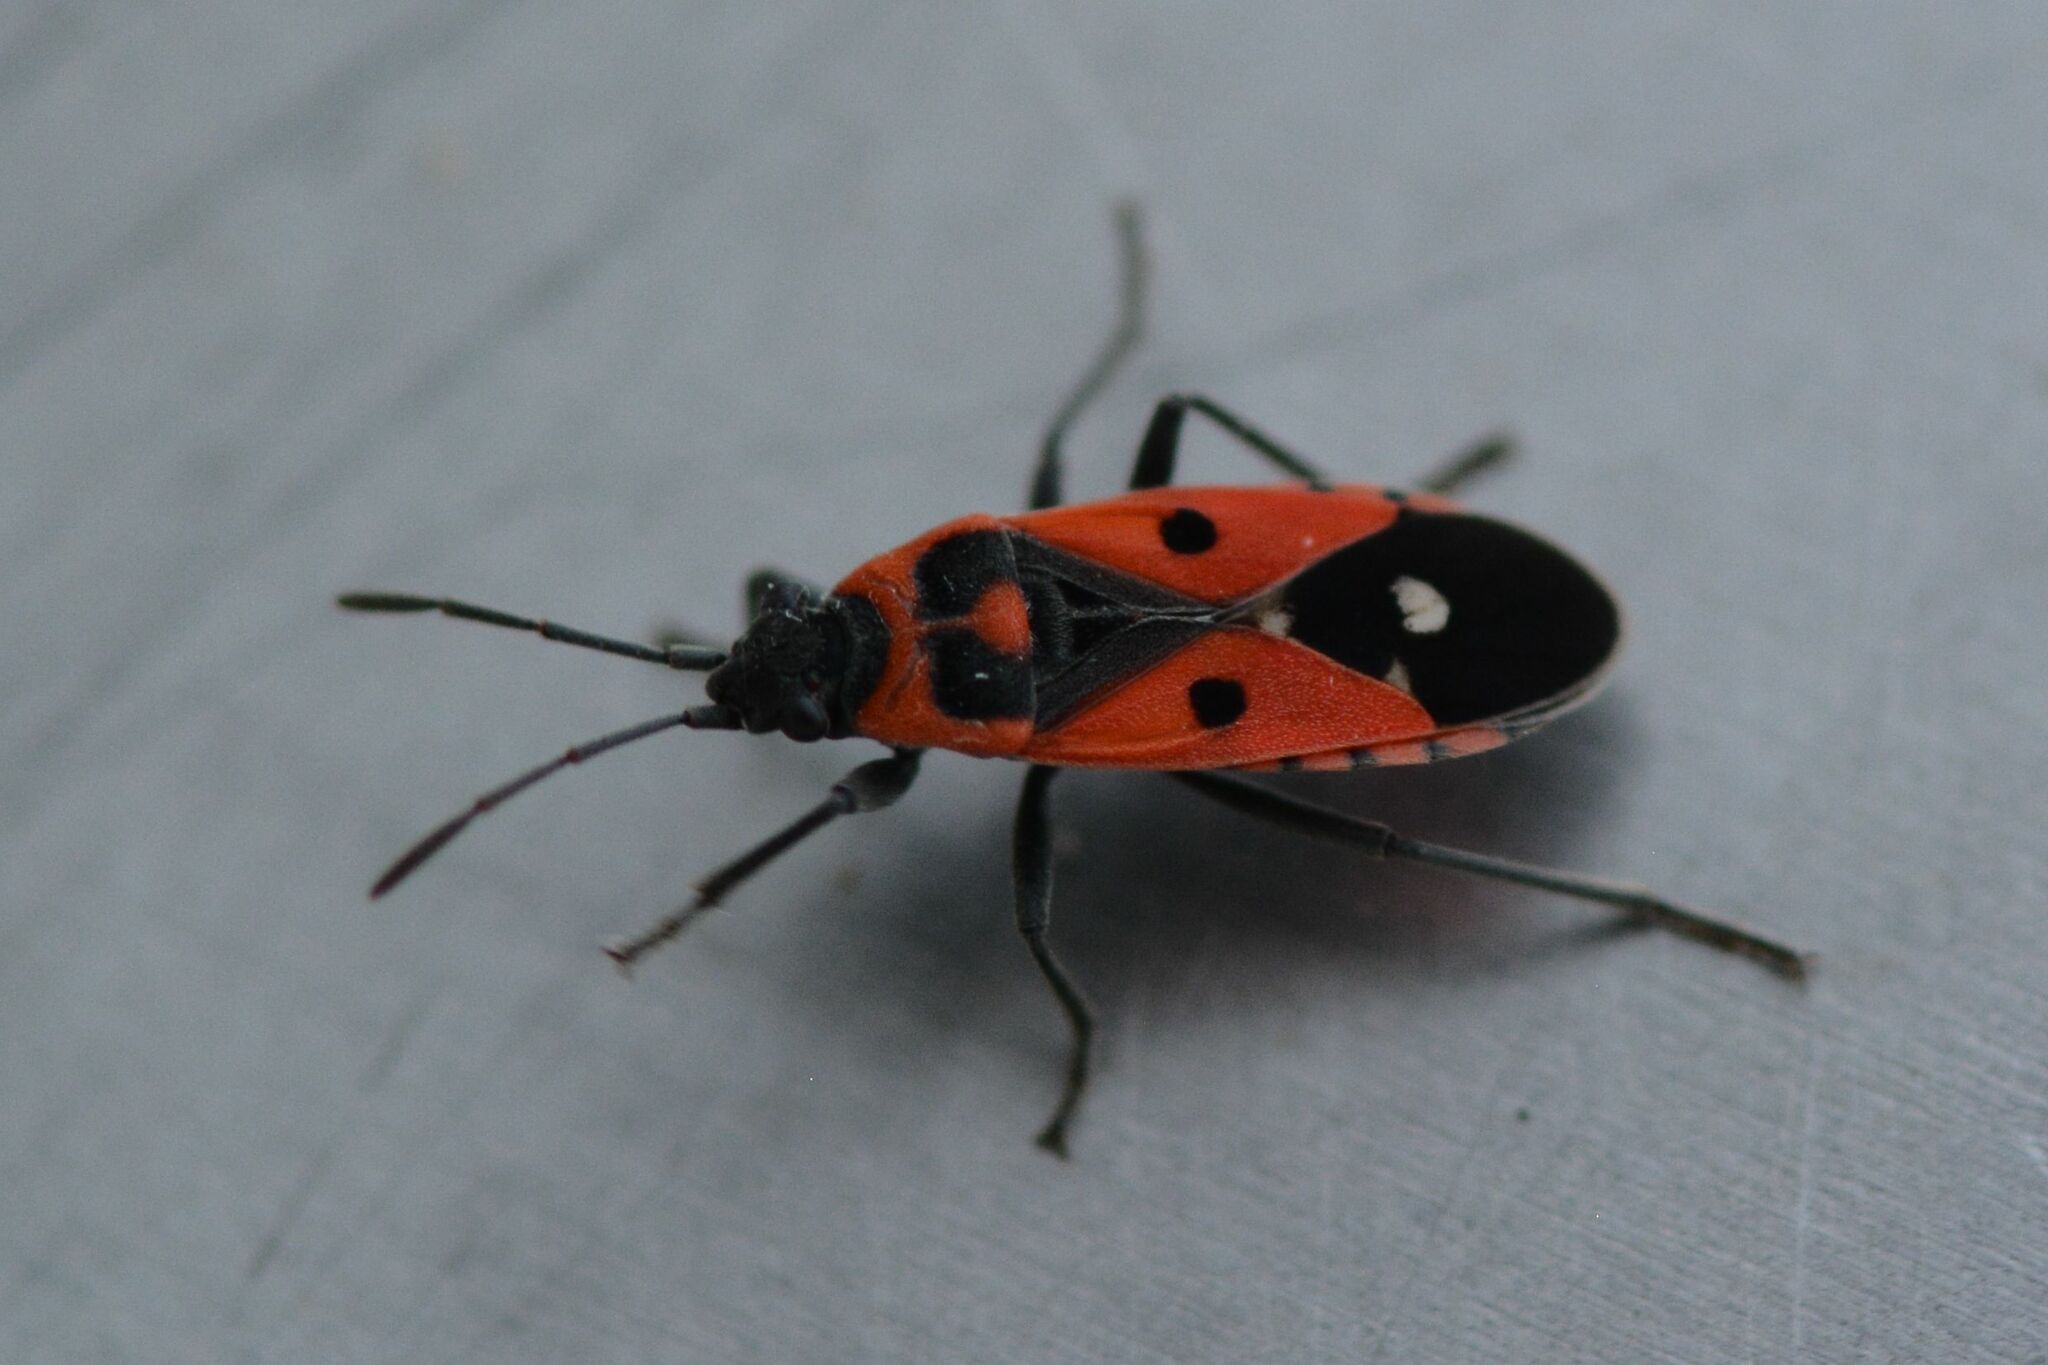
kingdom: Animalia
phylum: Arthropoda
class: Insecta
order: Hemiptera
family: Lygaeidae
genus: Melanocoryphus
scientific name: Melanocoryphus albomaculatus
